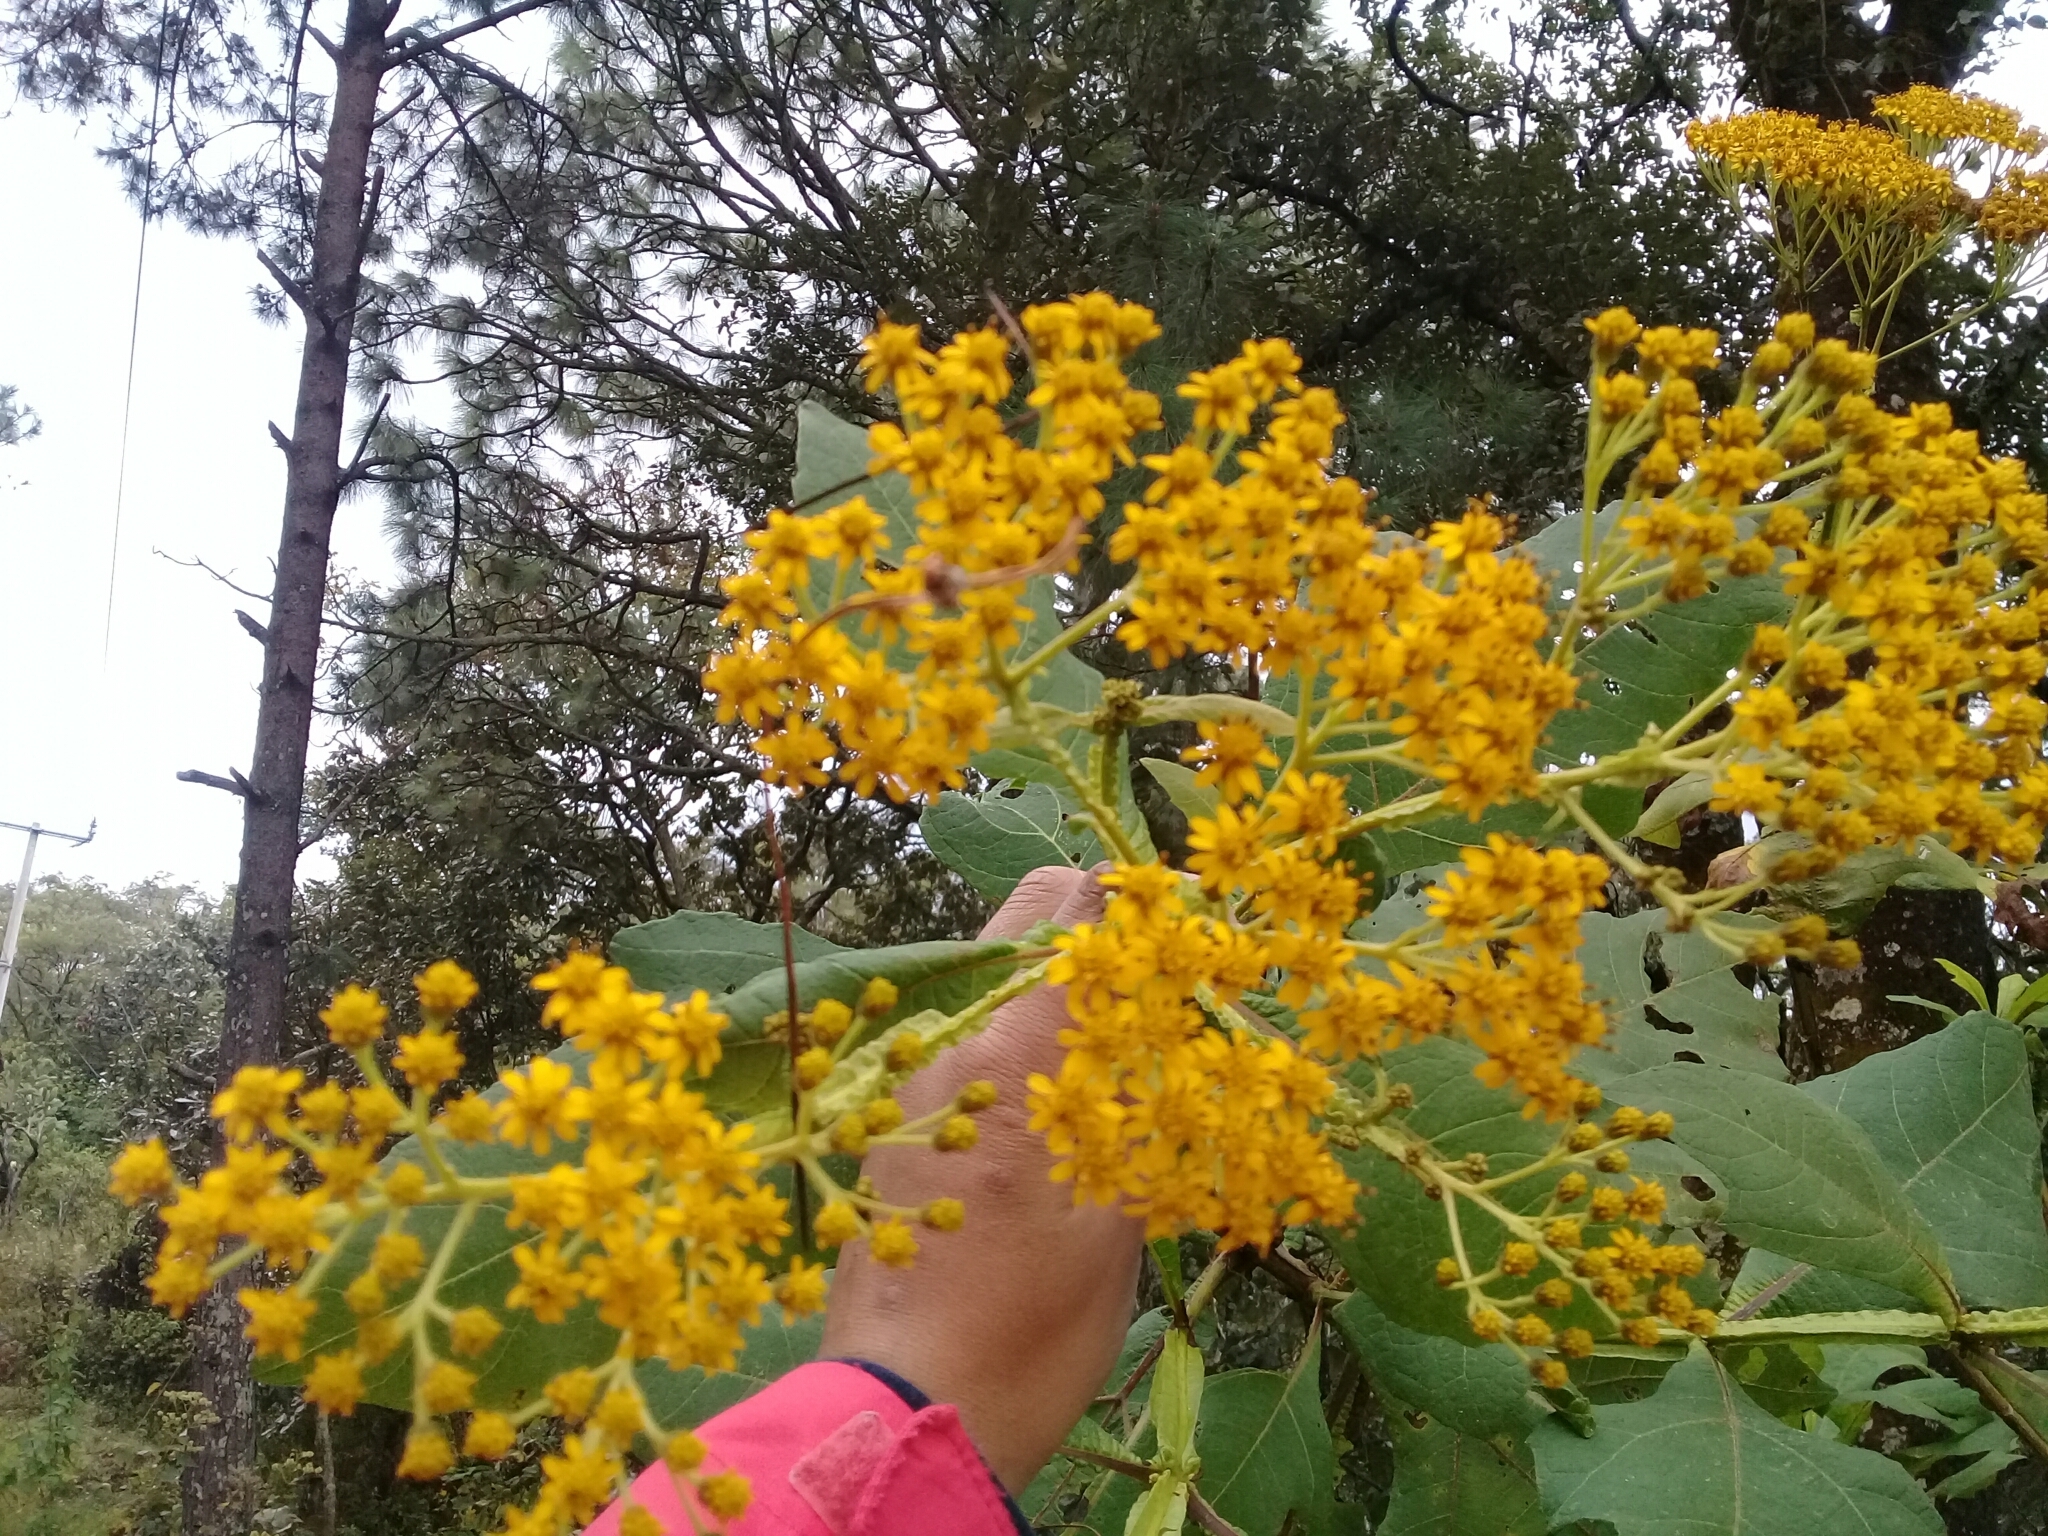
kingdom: Plantae
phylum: Tracheophyta
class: Magnoliopsida
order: Asterales
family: Asteraceae
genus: Verbesina
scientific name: Verbesina fastigiata
